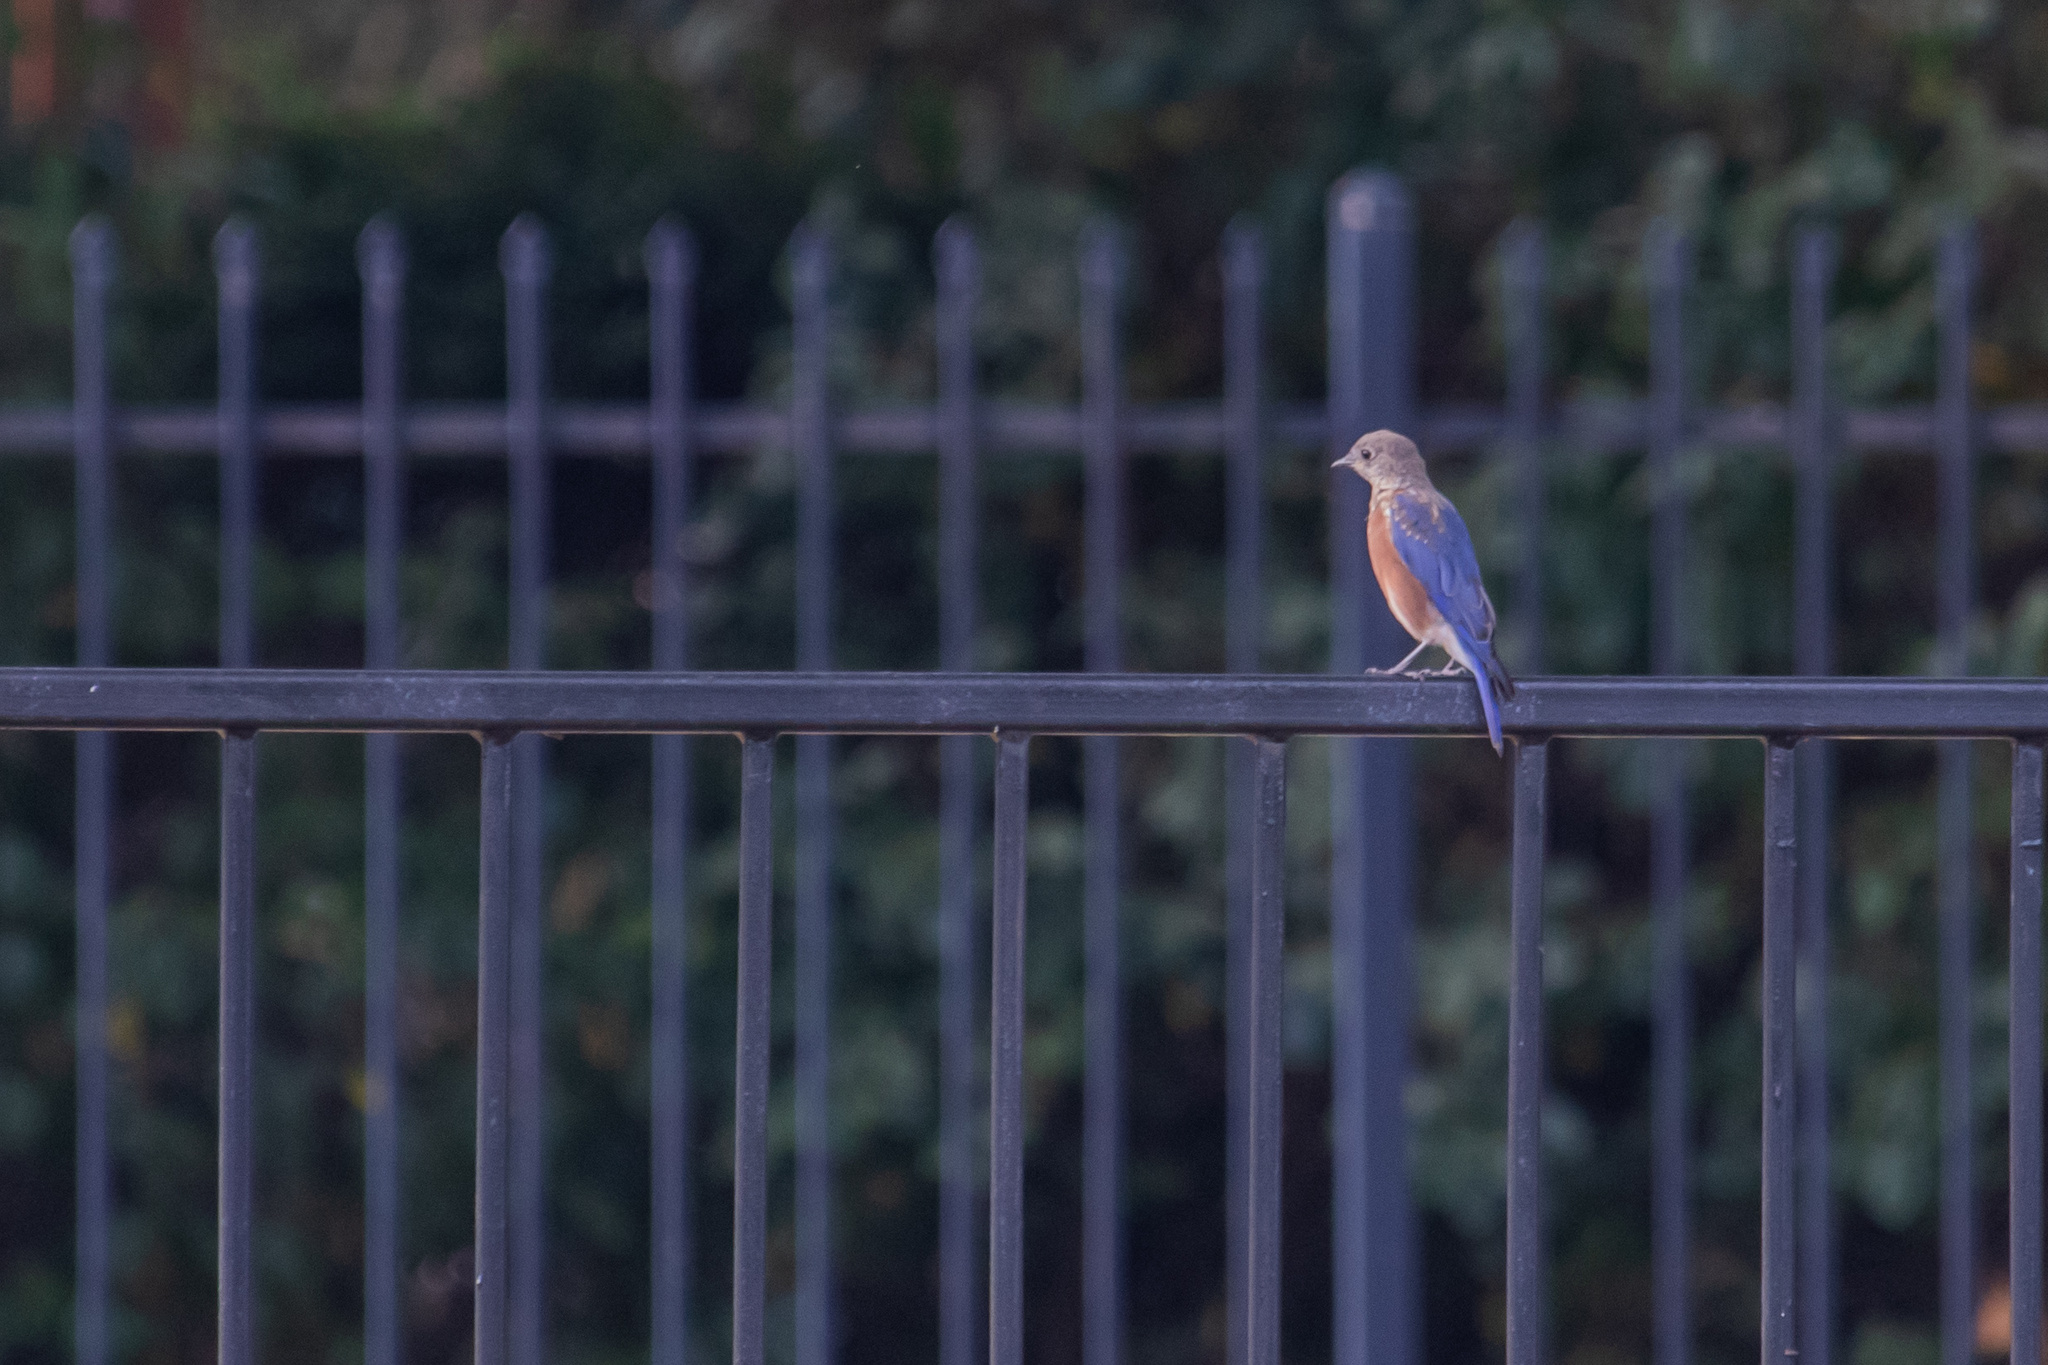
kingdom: Animalia
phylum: Chordata
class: Aves
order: Passeriformes
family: Turdidae
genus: Sialia
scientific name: Sialia sialis
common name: Eastern bluebird
